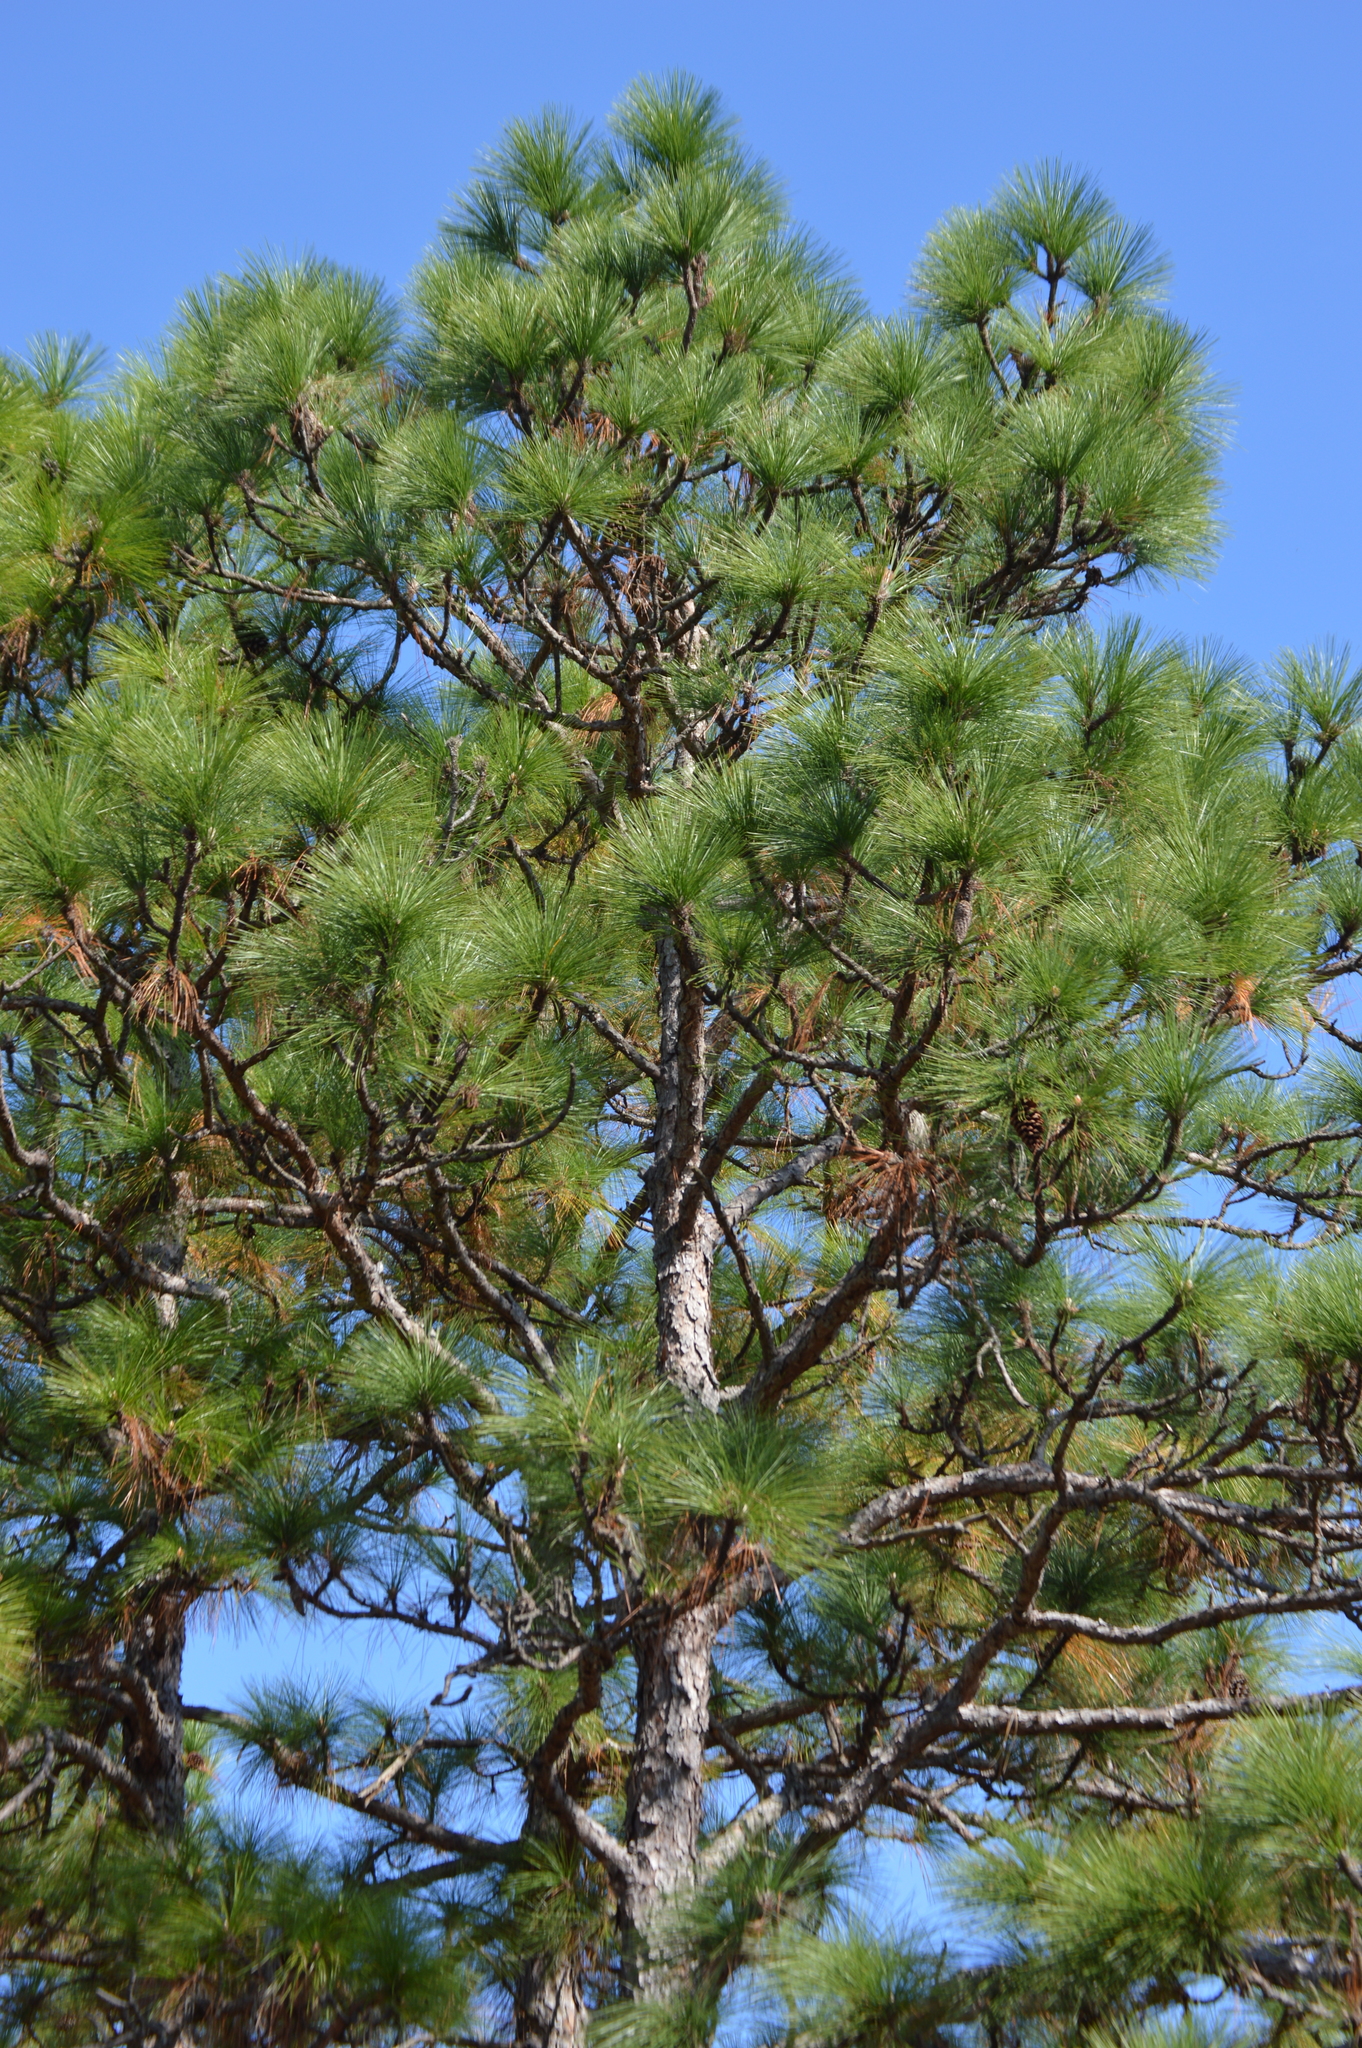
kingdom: Plantae
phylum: Tracheophyta
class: Pinopsida
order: Pinales
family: Pinaceae
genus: Pinus
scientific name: Pinus palustris
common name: Longleaf pine
